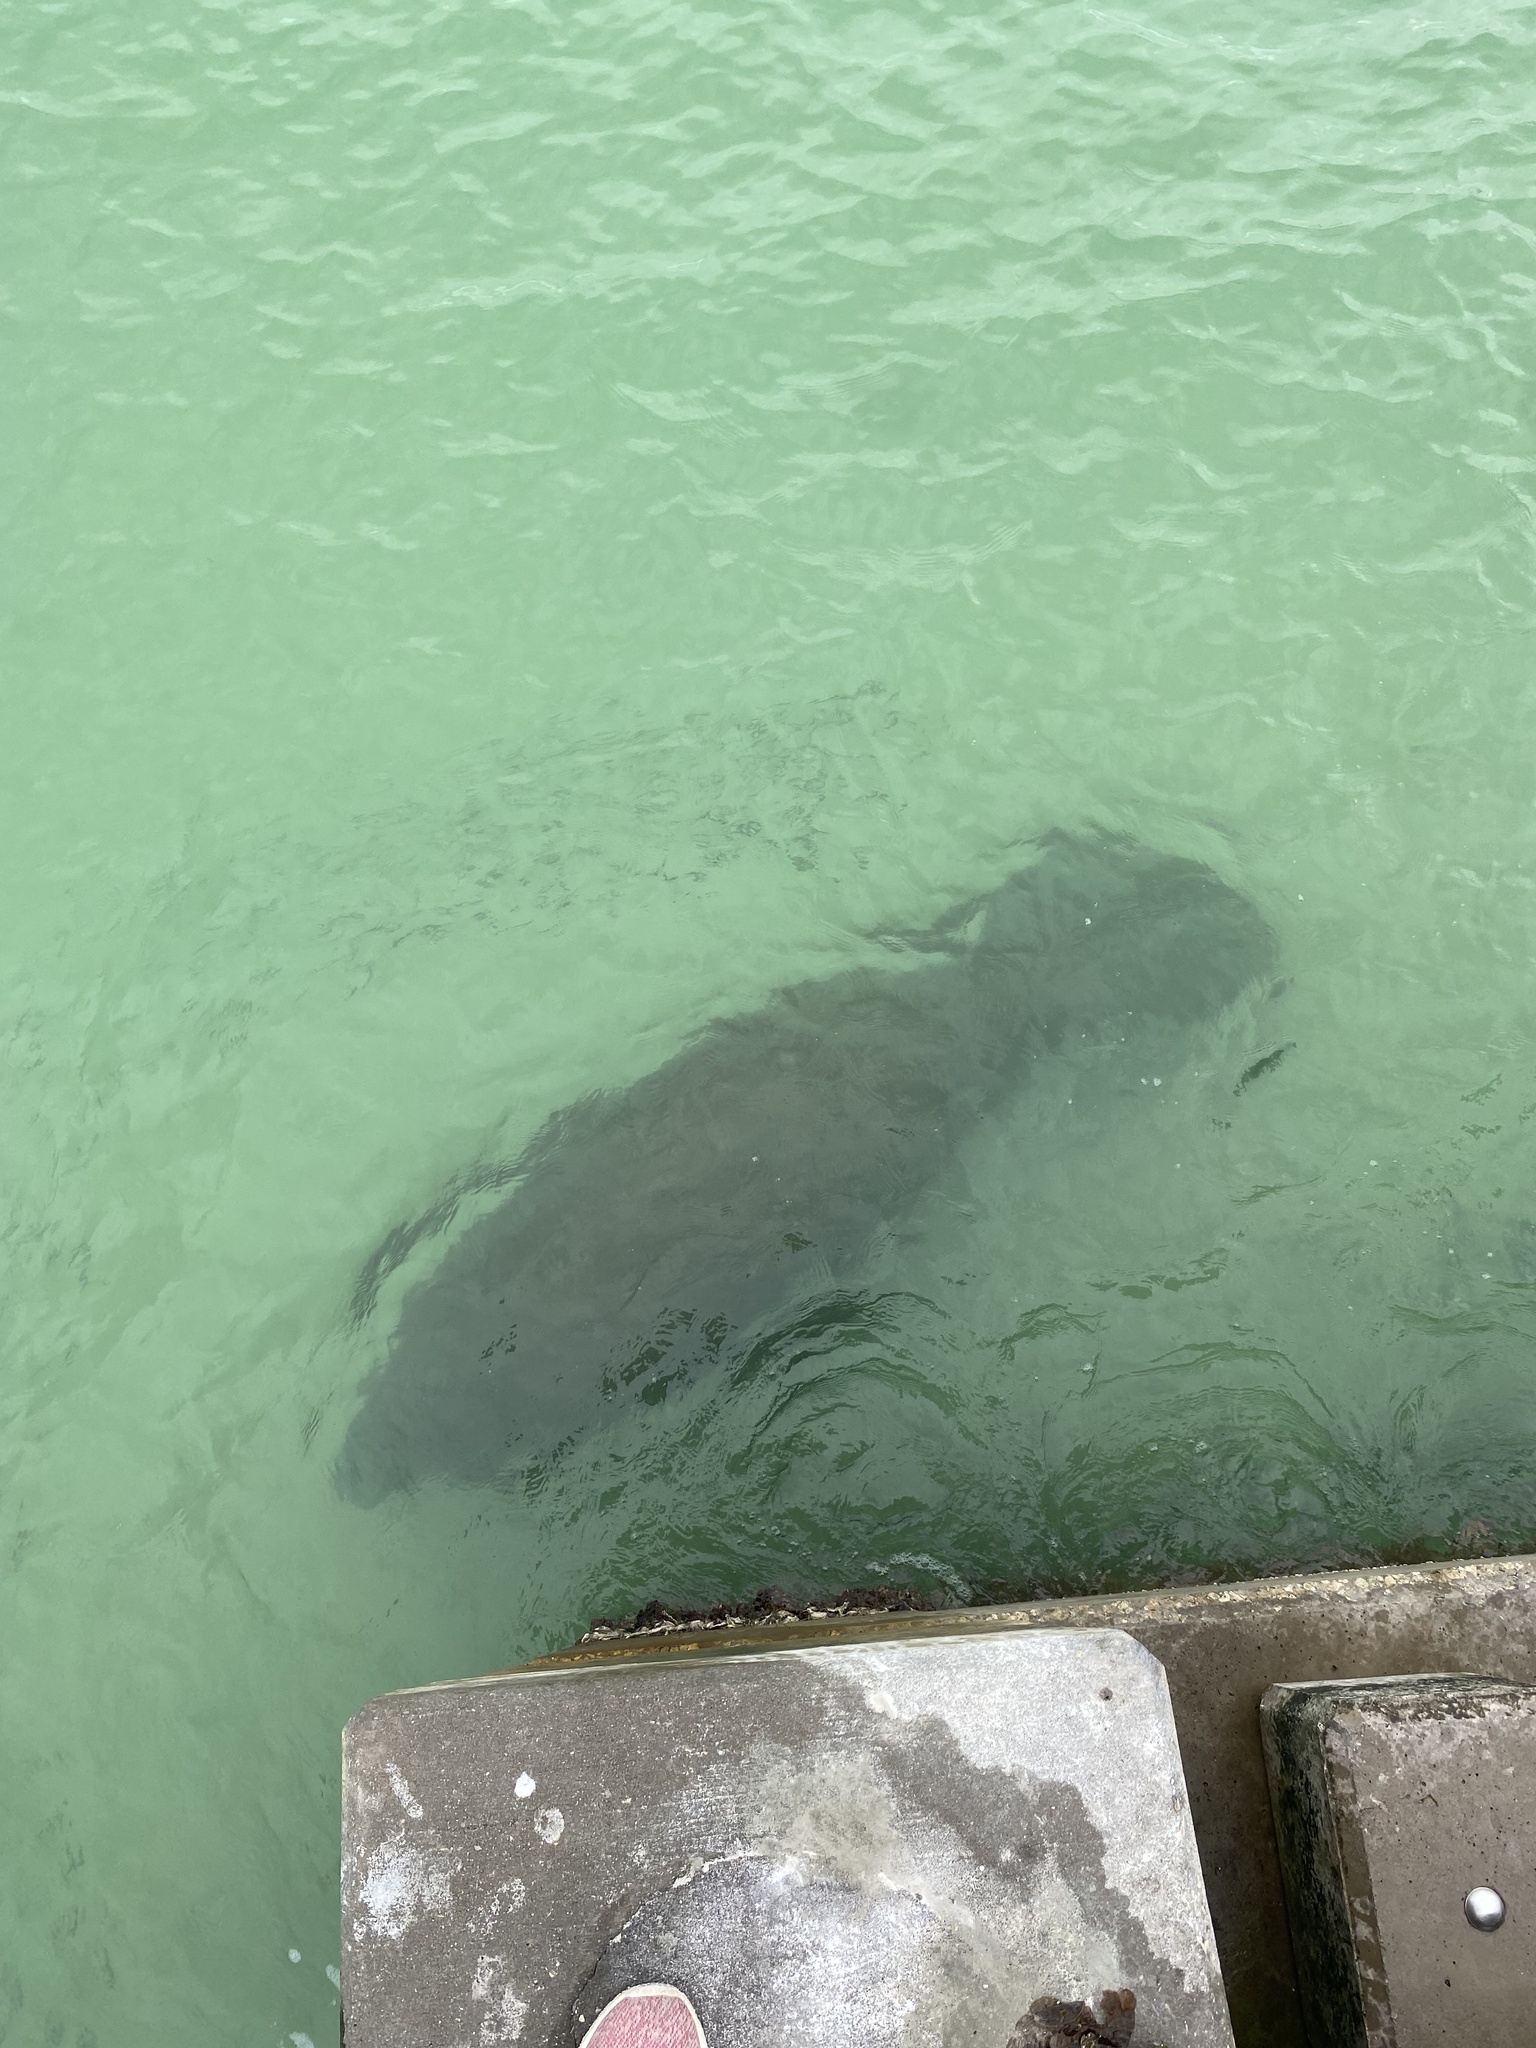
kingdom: Animalia
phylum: Chordata
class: Mammalia
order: Sirenia
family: Trichechidae
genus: Trichechus
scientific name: Trichechus manatus
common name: West indian manatee
